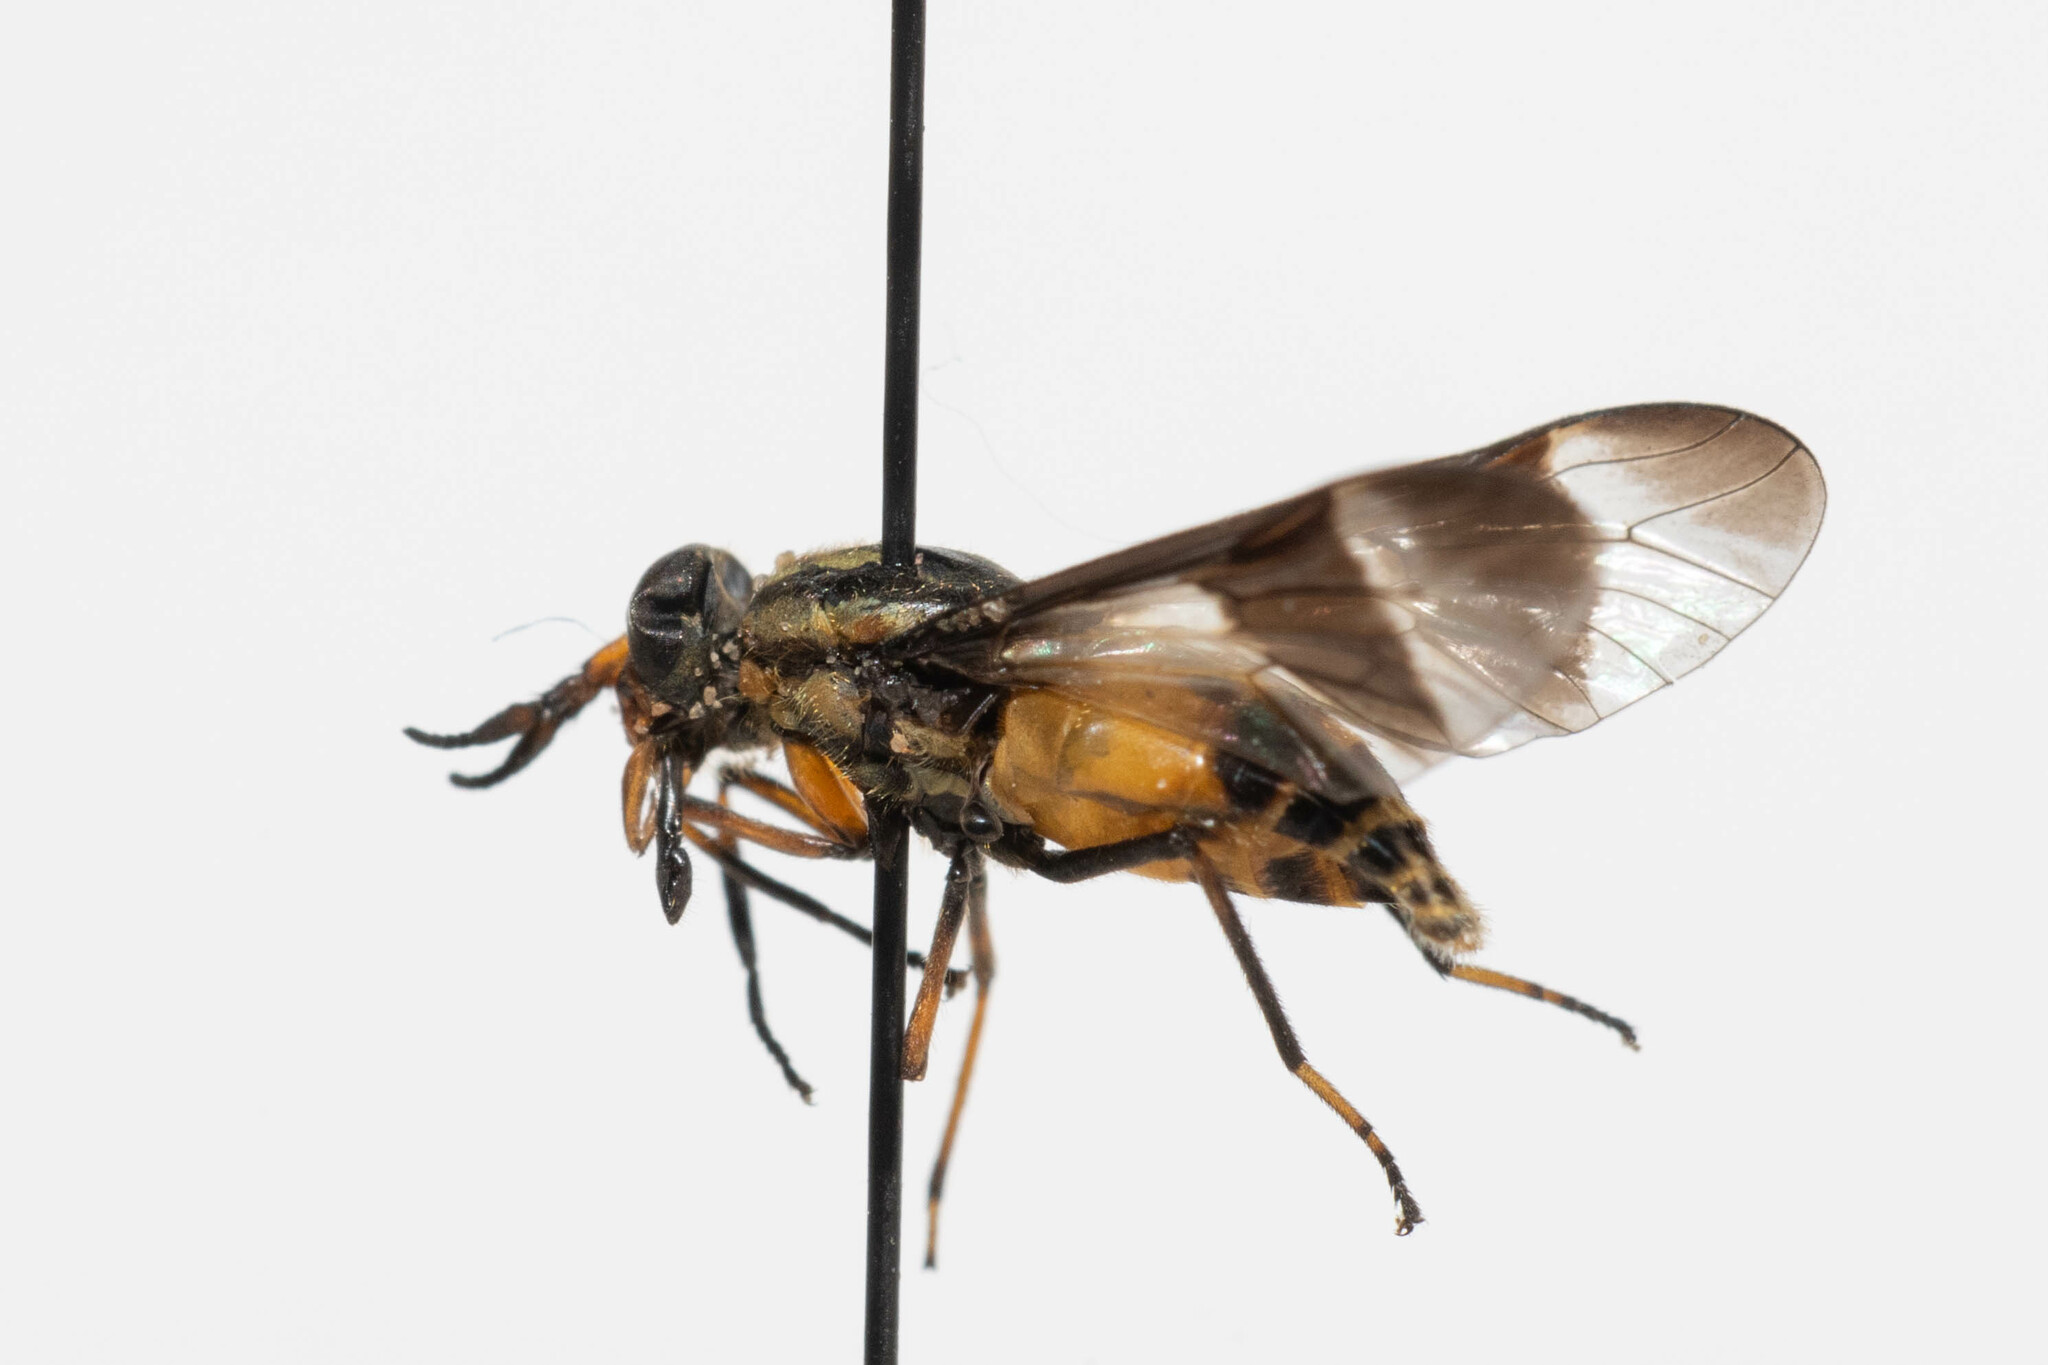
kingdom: Animalia
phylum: Arthropoda
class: Insecta
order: Diptera
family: Tabanidae
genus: Chrysops
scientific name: Chrysops geminatus
